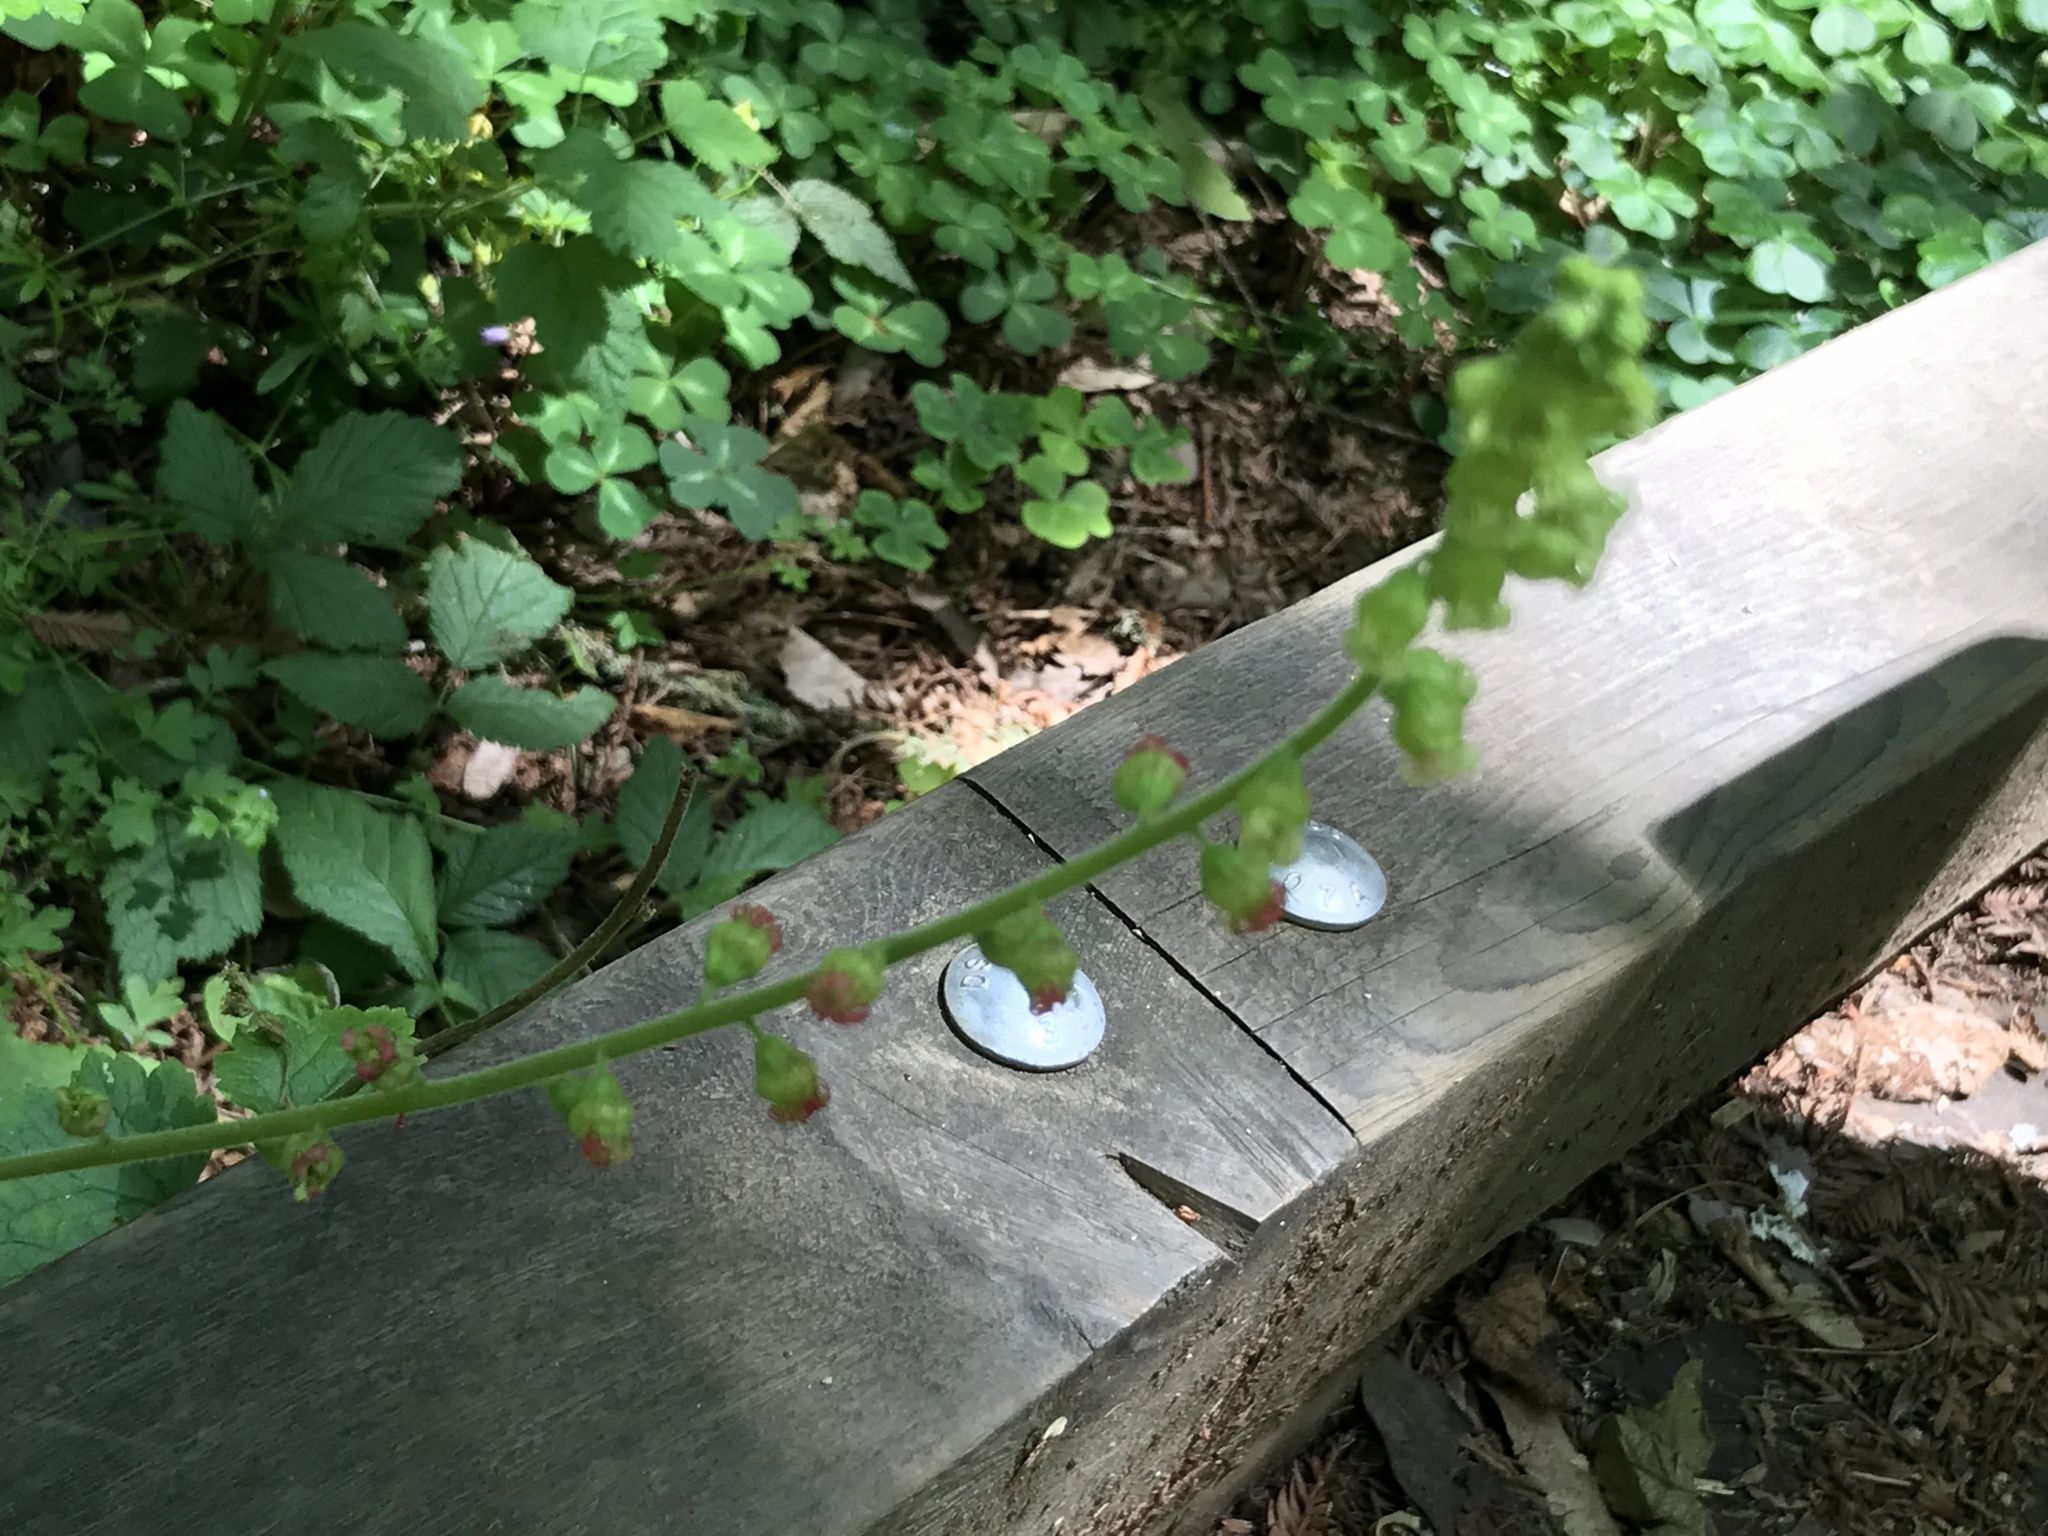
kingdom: Plantae
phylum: Tracheophyta
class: Magnoliopsida
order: Saxifragales
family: Saxifragaceae
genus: Tellima
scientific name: Tellima grandiflora
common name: Fringecups
